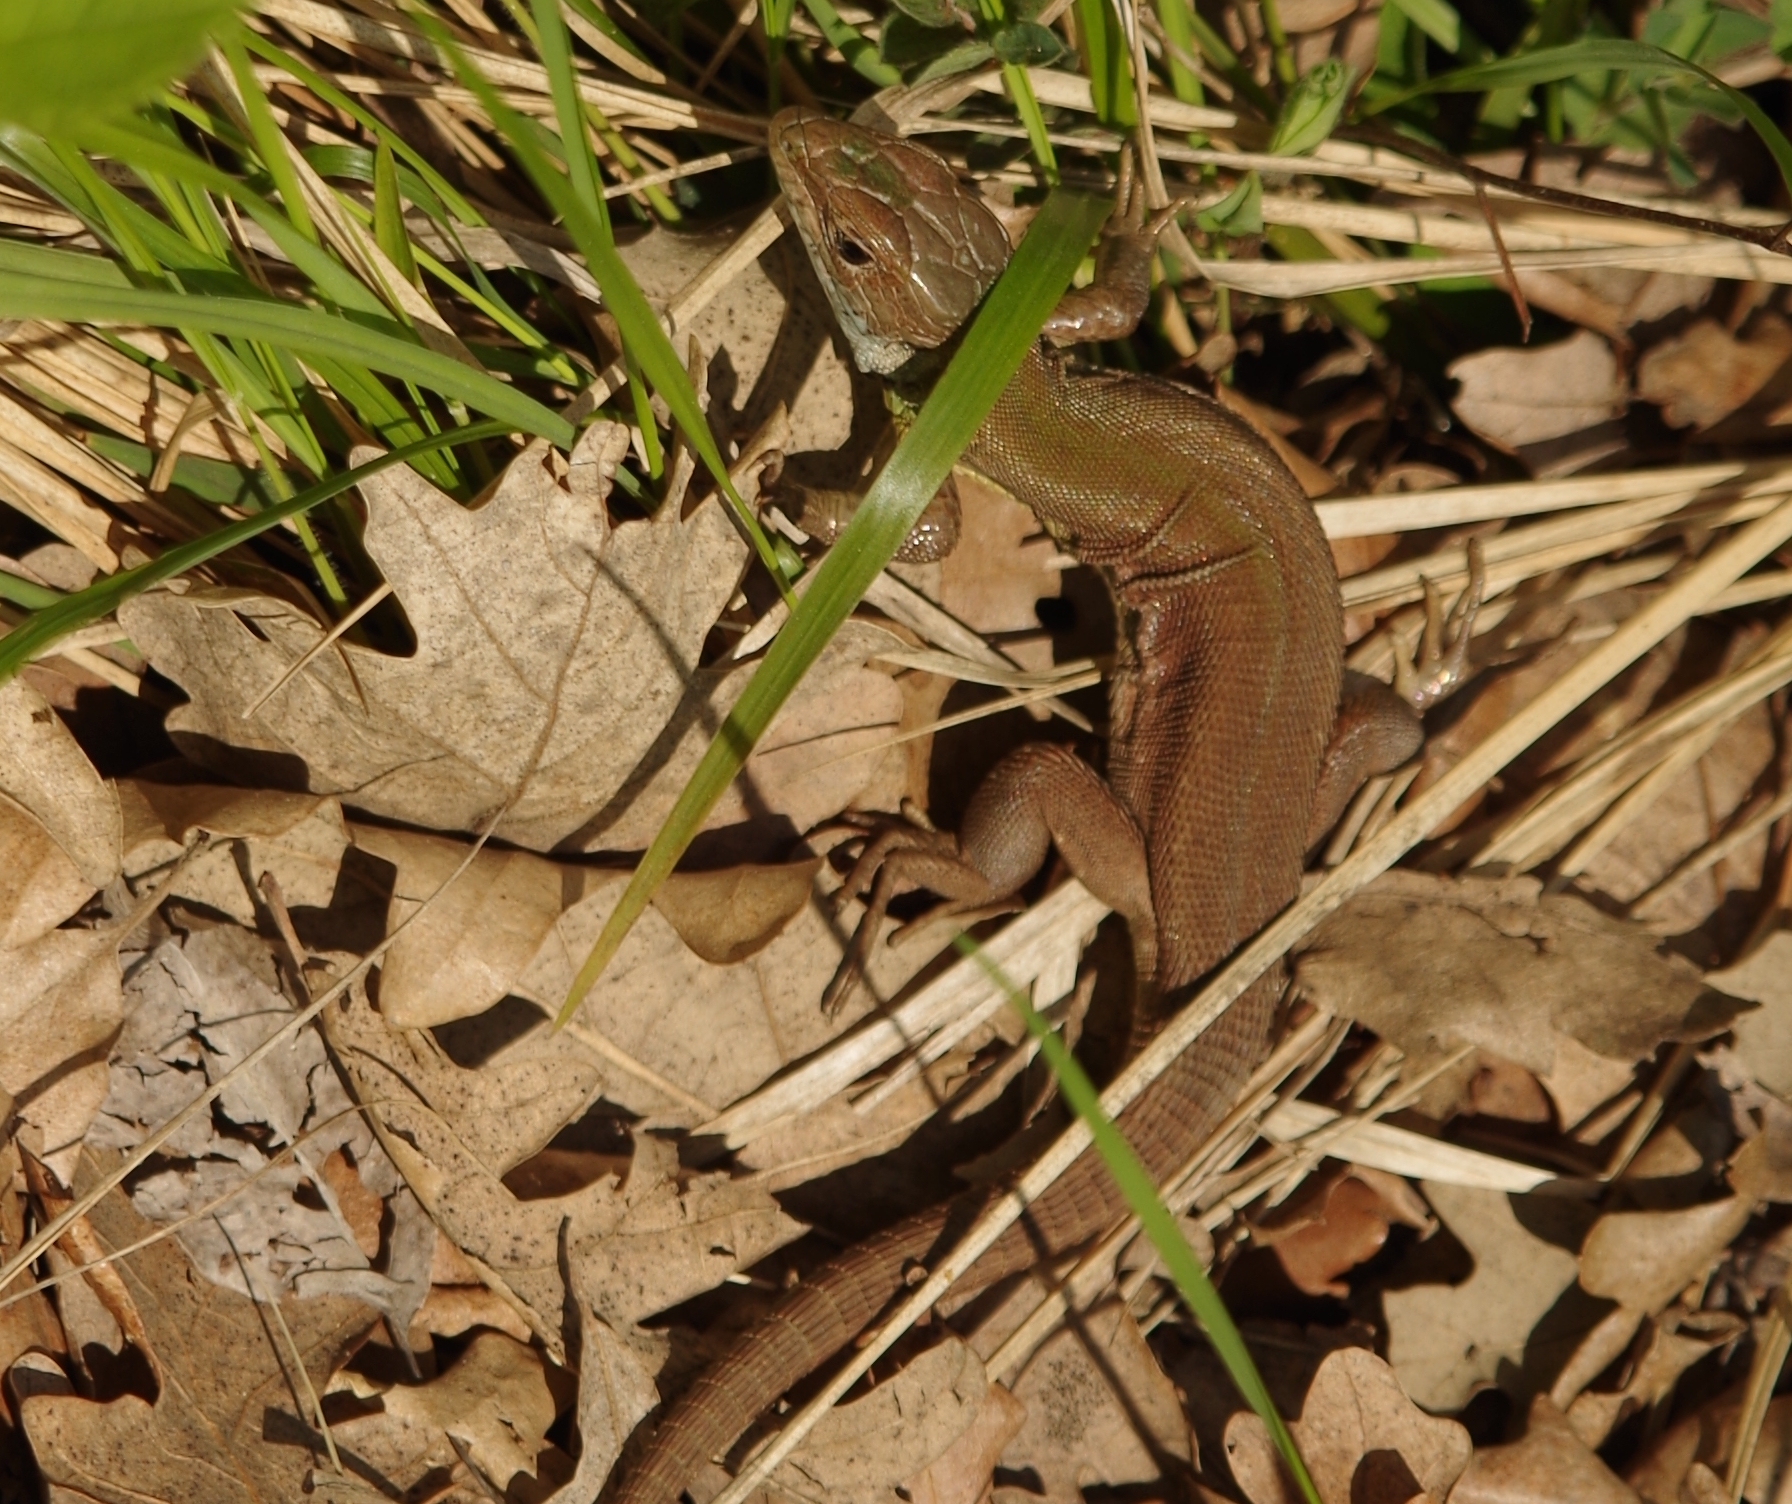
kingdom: Animalia
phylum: Chordata
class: Squamata
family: Lacertidae
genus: Lacerta
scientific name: Lacerta viridis
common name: European green lizard
